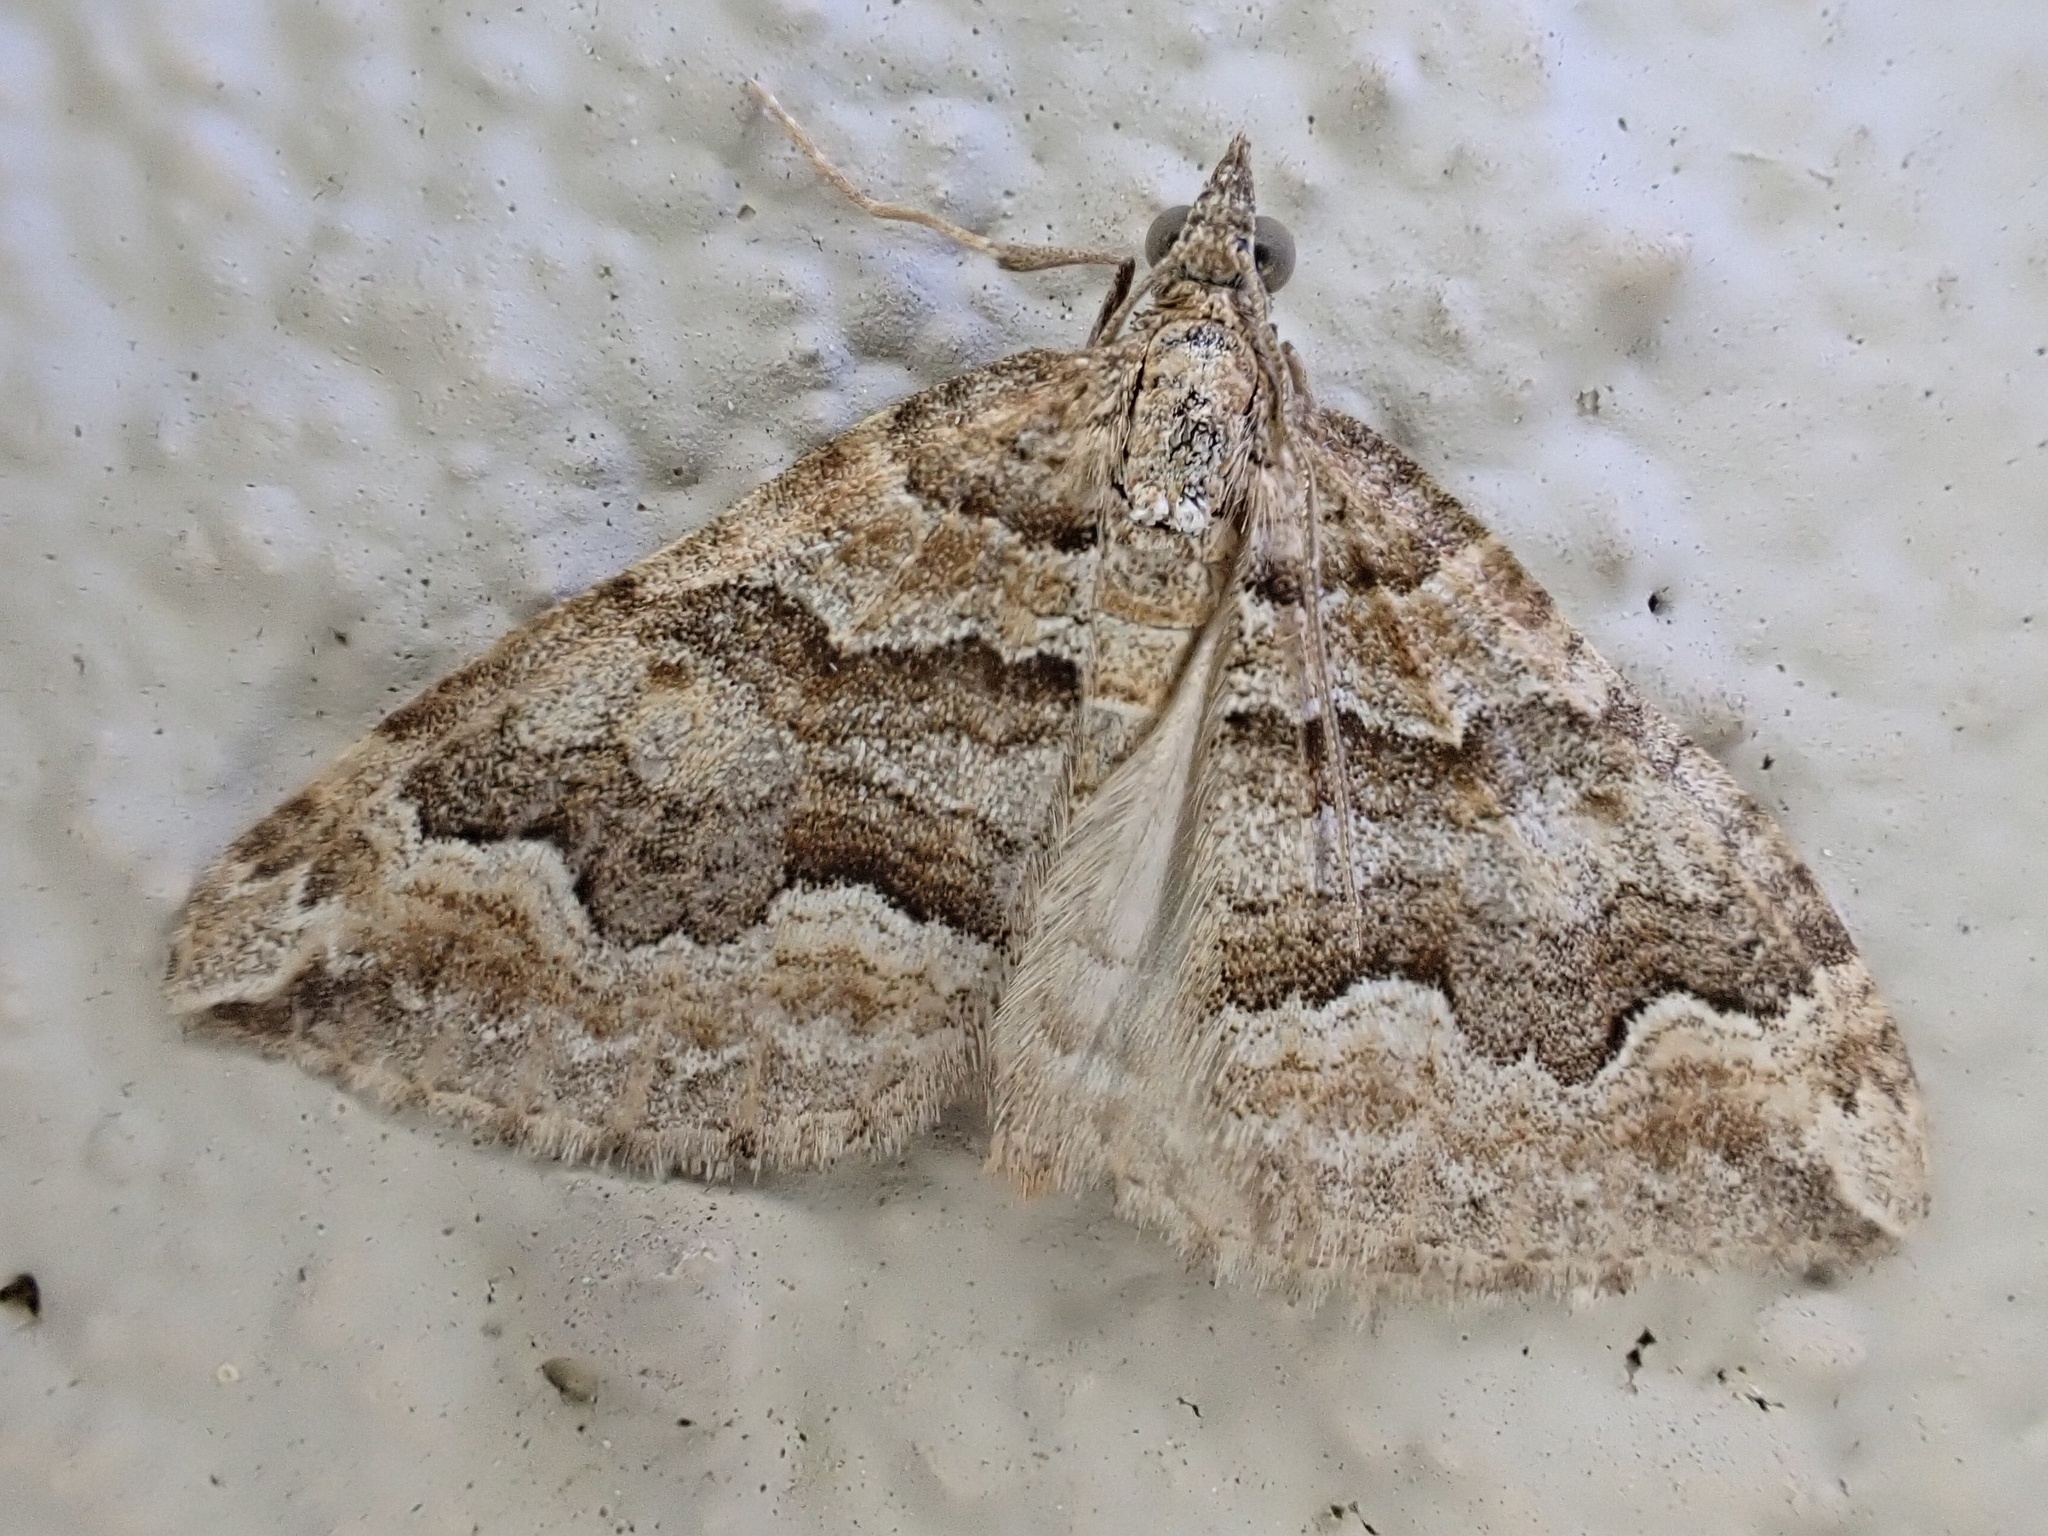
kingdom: Animalia
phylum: Arthropoda
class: Insecta
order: Lepidoptera
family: Geometridae
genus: Perizoma
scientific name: Perizoma epictata
